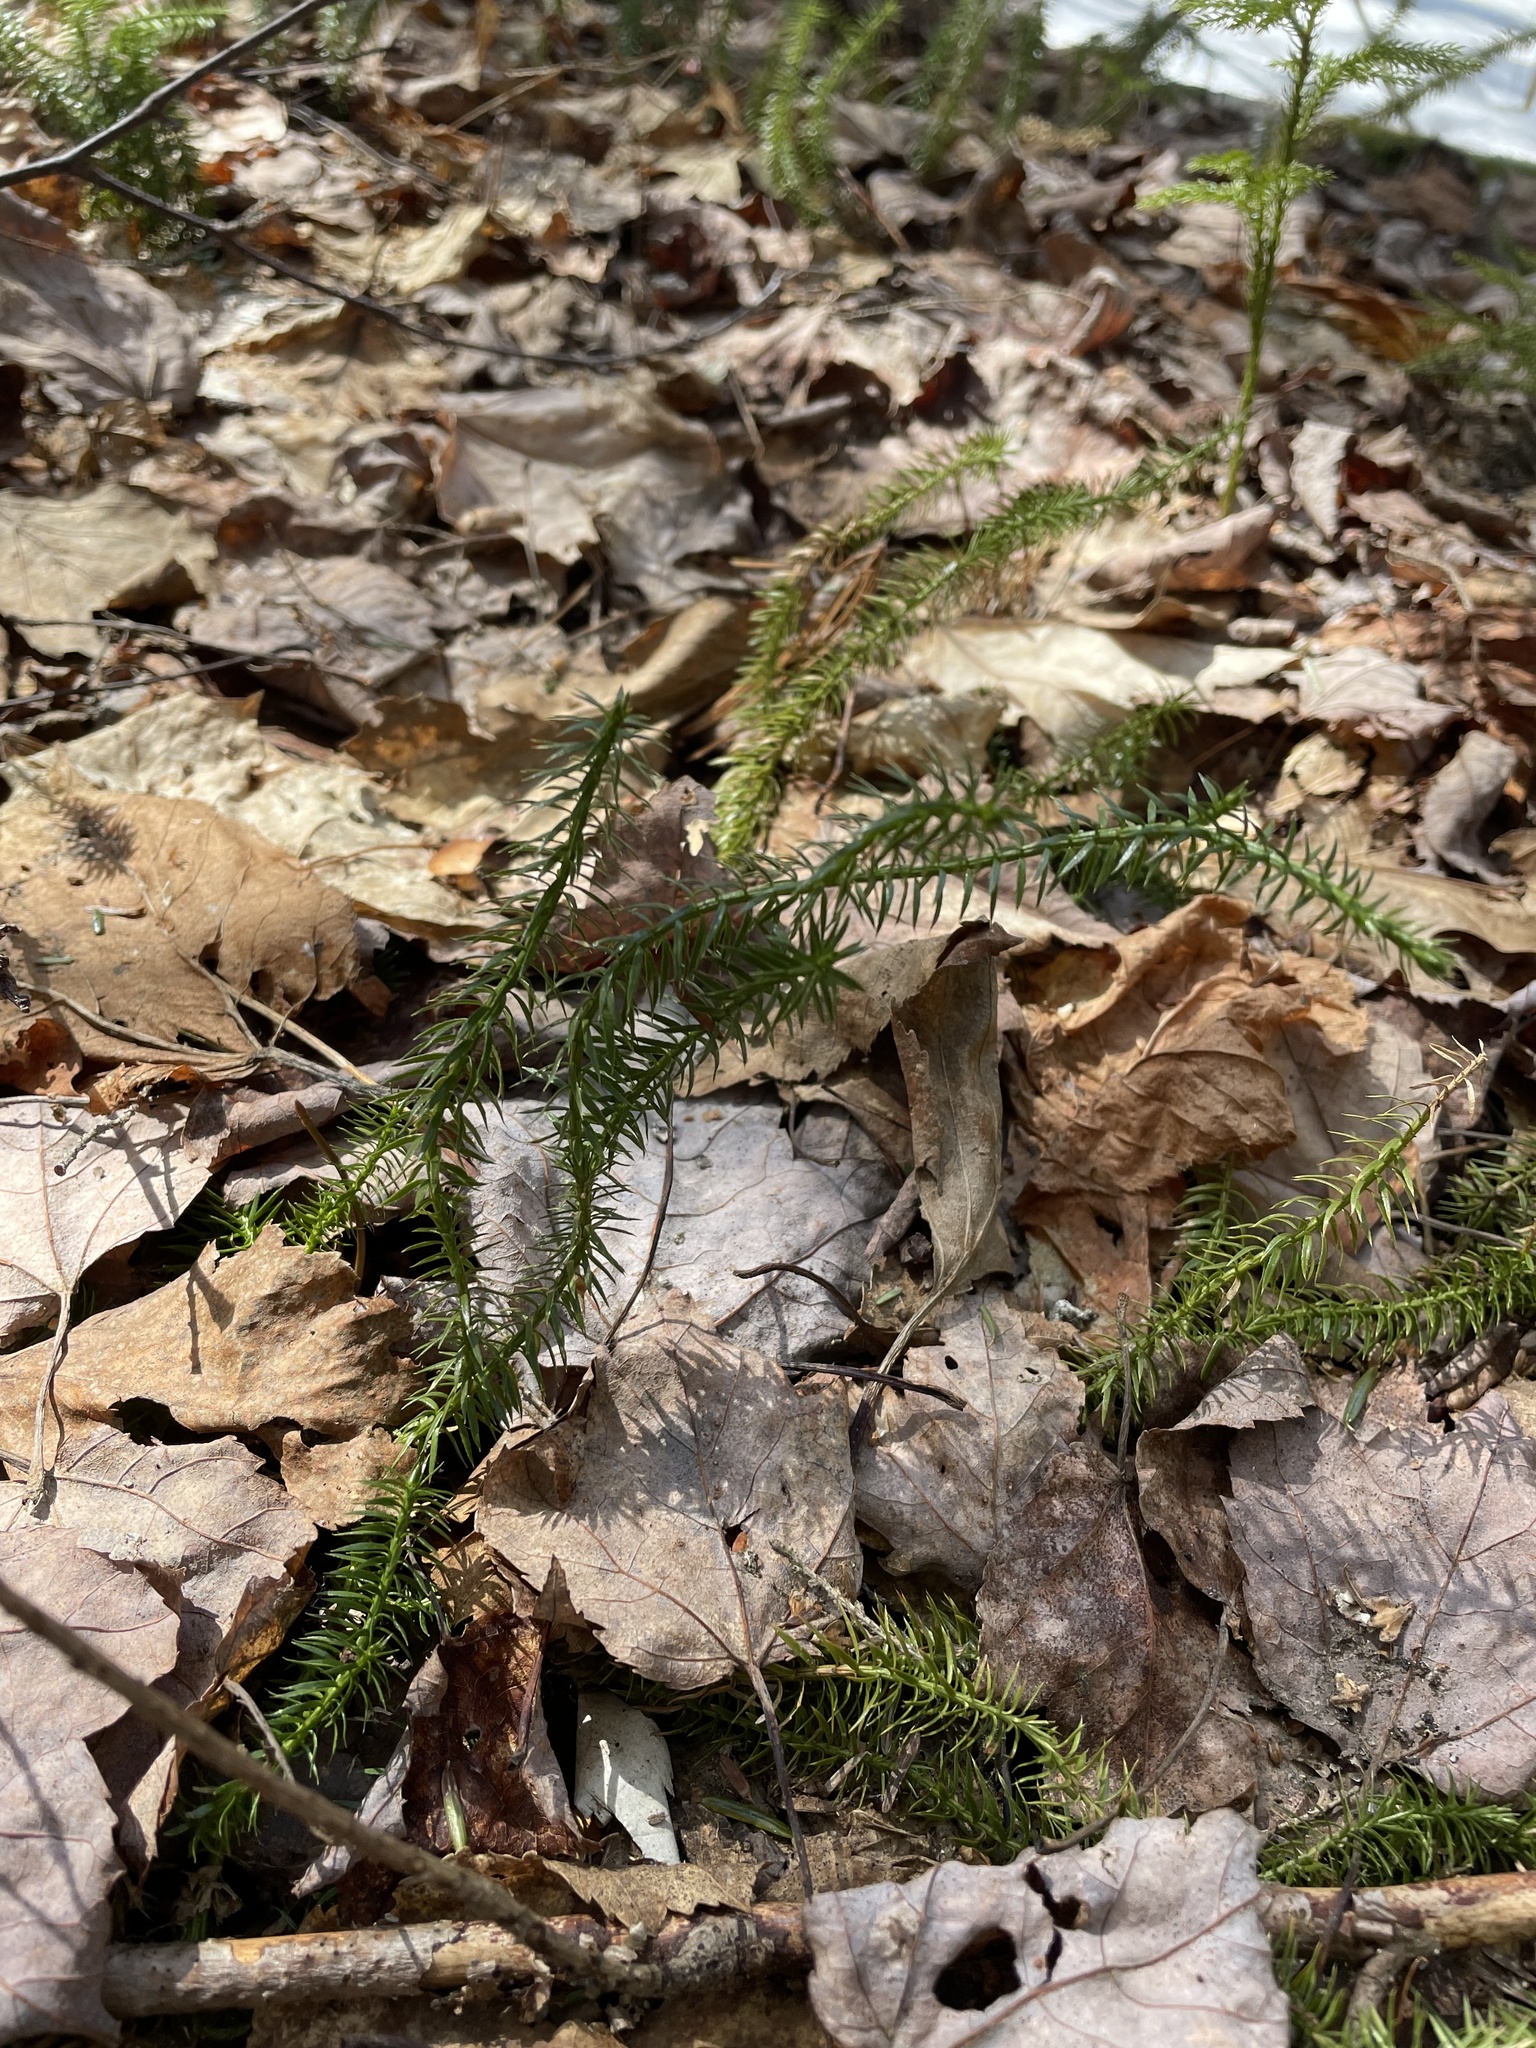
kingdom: Plantae
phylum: Tracheophyta
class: Lycopodiopsida
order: Lycopodiales
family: Lycopodiaceae
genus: Spinulum
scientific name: Spinulum annotinum
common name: Interrupted club-moss
